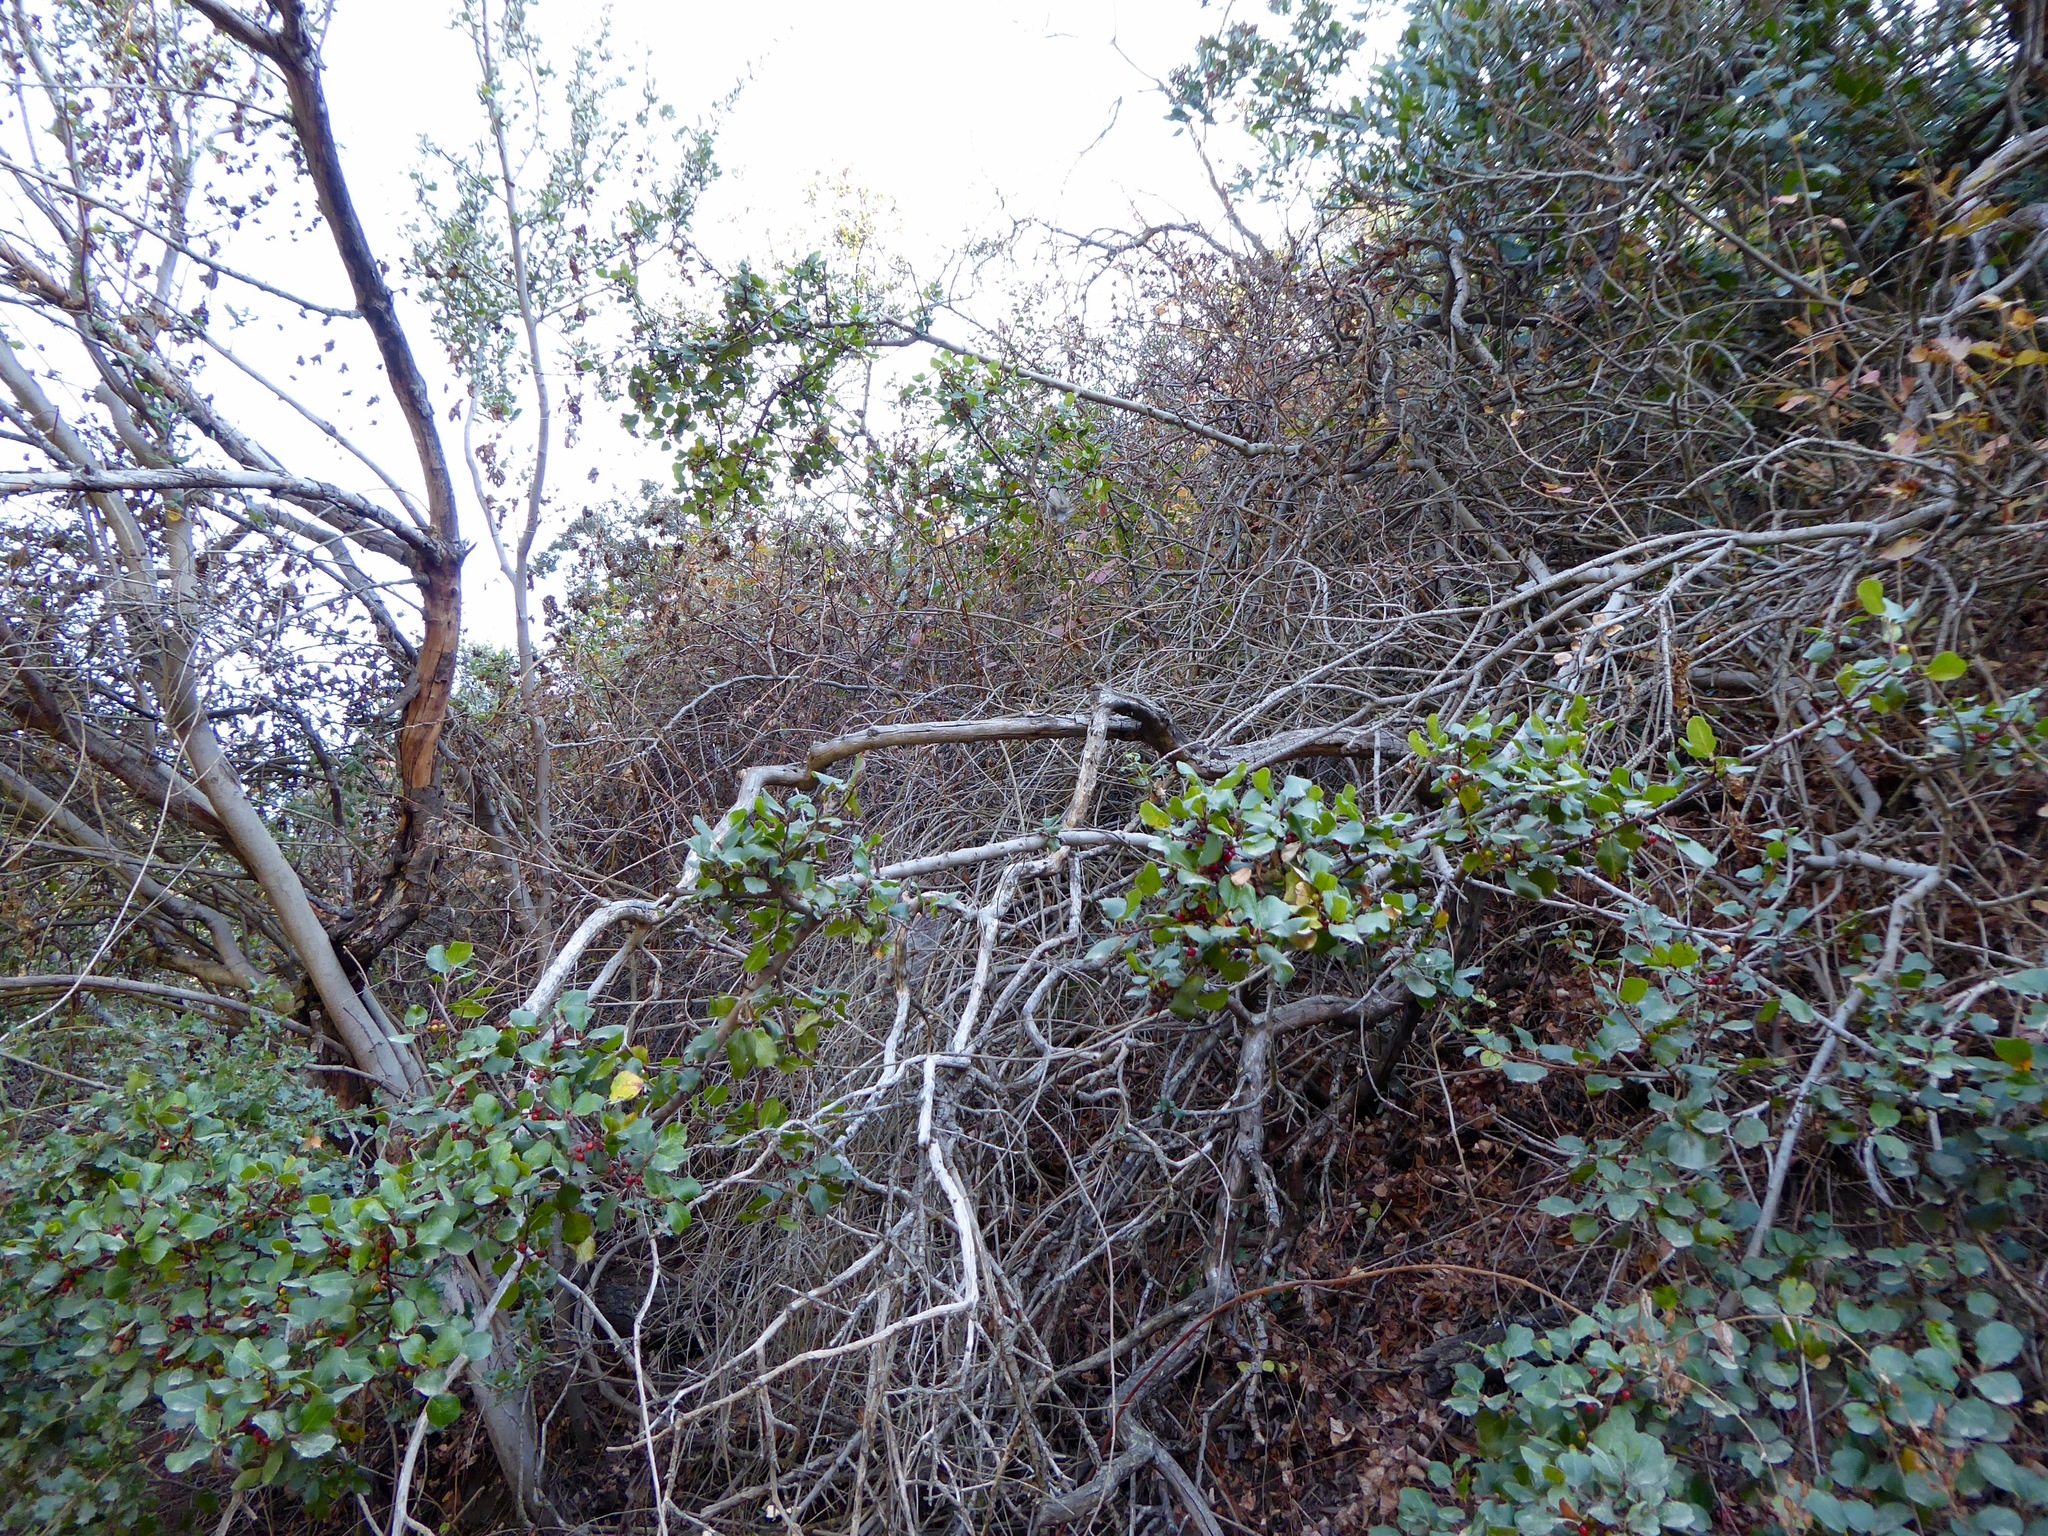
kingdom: Plantae
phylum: Tracheophyta
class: Magnoliopsida
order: Rosales
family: Rhamnaceae
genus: Endotropis
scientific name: Endotropis crocea
